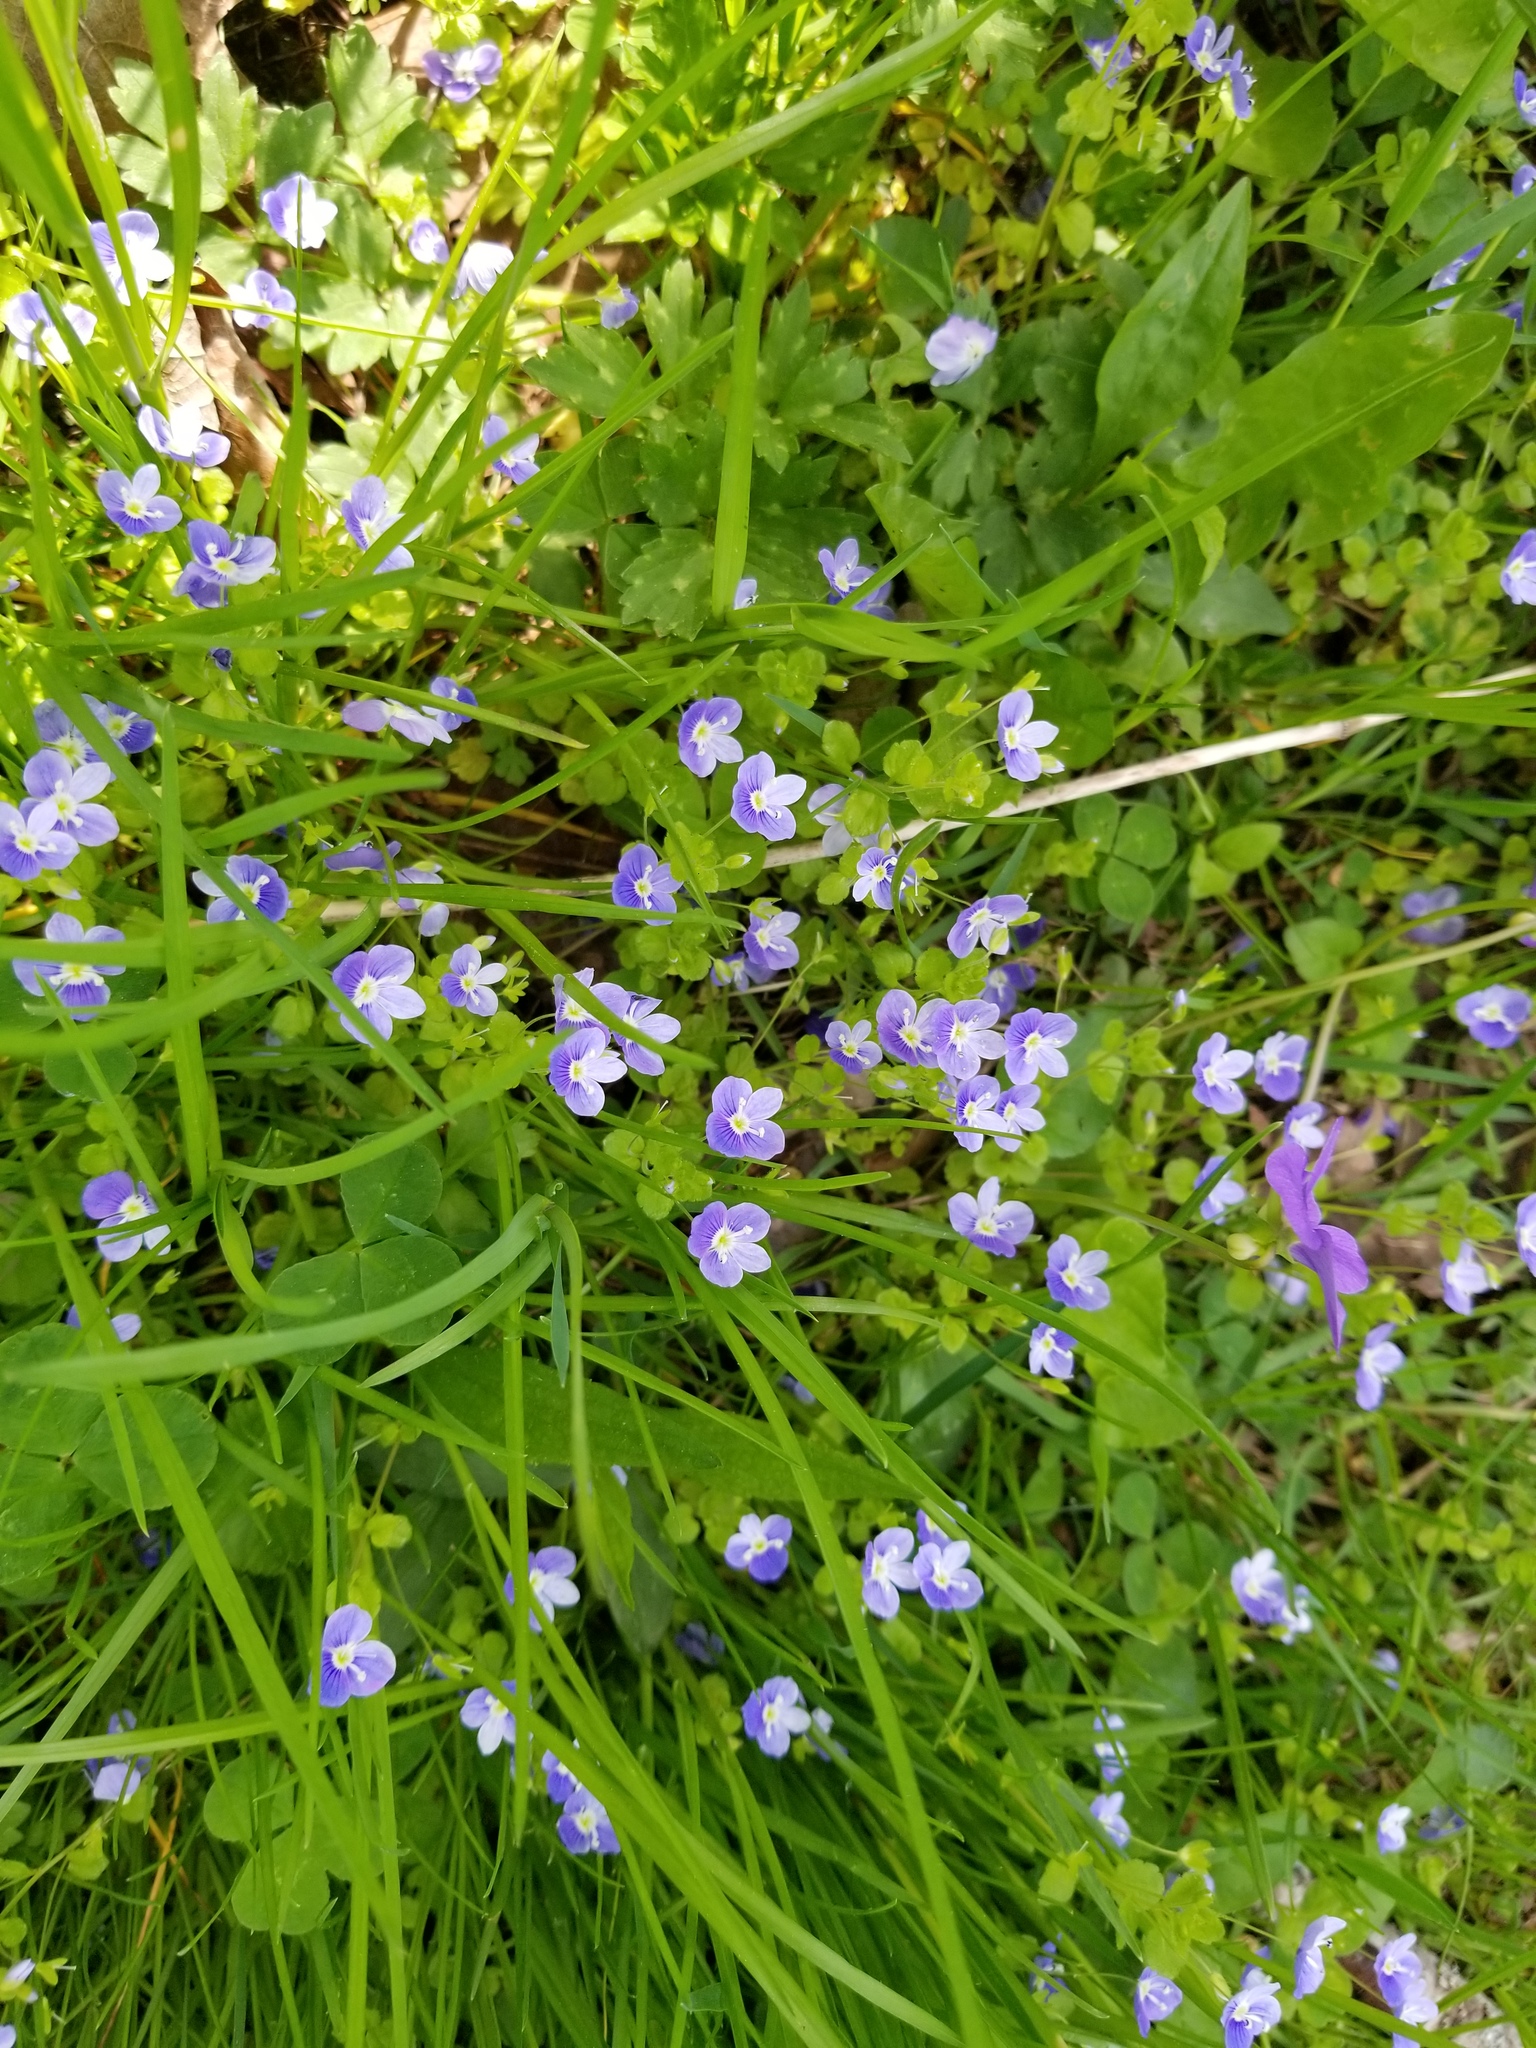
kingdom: Plantae
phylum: Tracheophyta
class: Magnoliopsida
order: Lamiales
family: Plantaginaceae
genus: Veronica
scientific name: Veronica filiformis
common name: Slender speedwell
